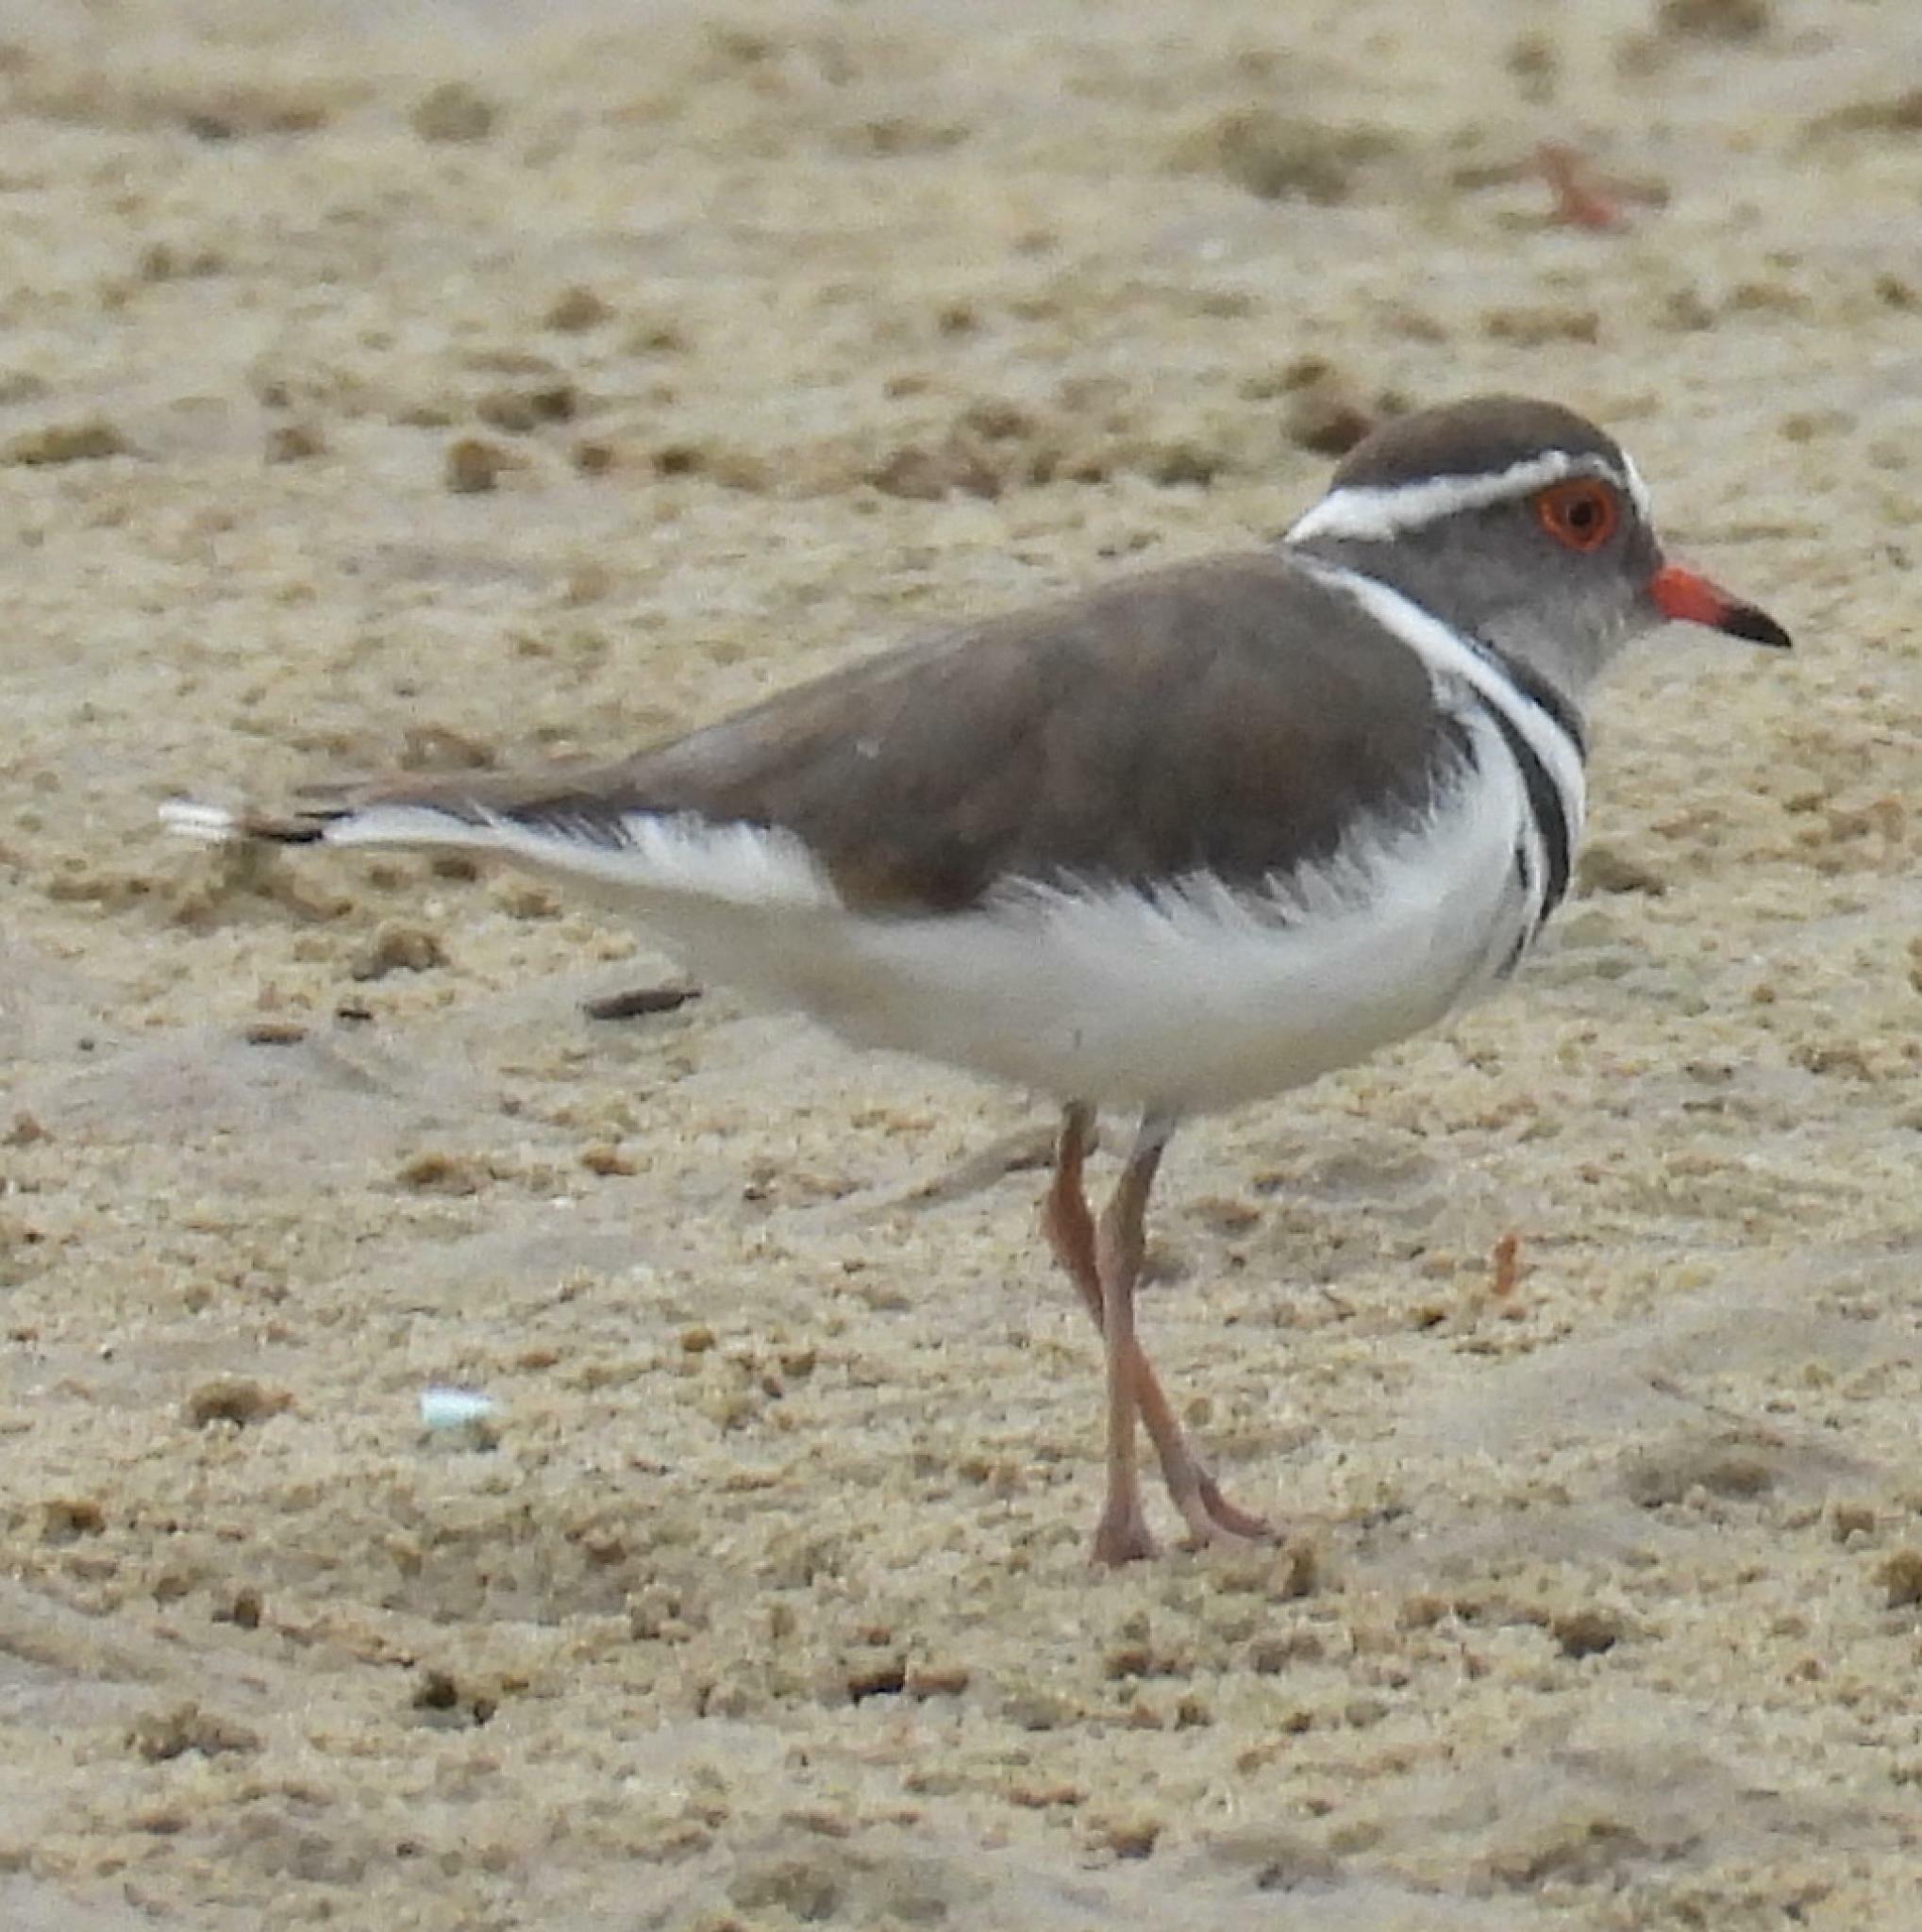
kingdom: Animalia
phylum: Chordata
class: Aves
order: Charadriiformes
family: Charadriidae
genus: Charadrius
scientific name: Charadrius tricollaris
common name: Three-banded plover
